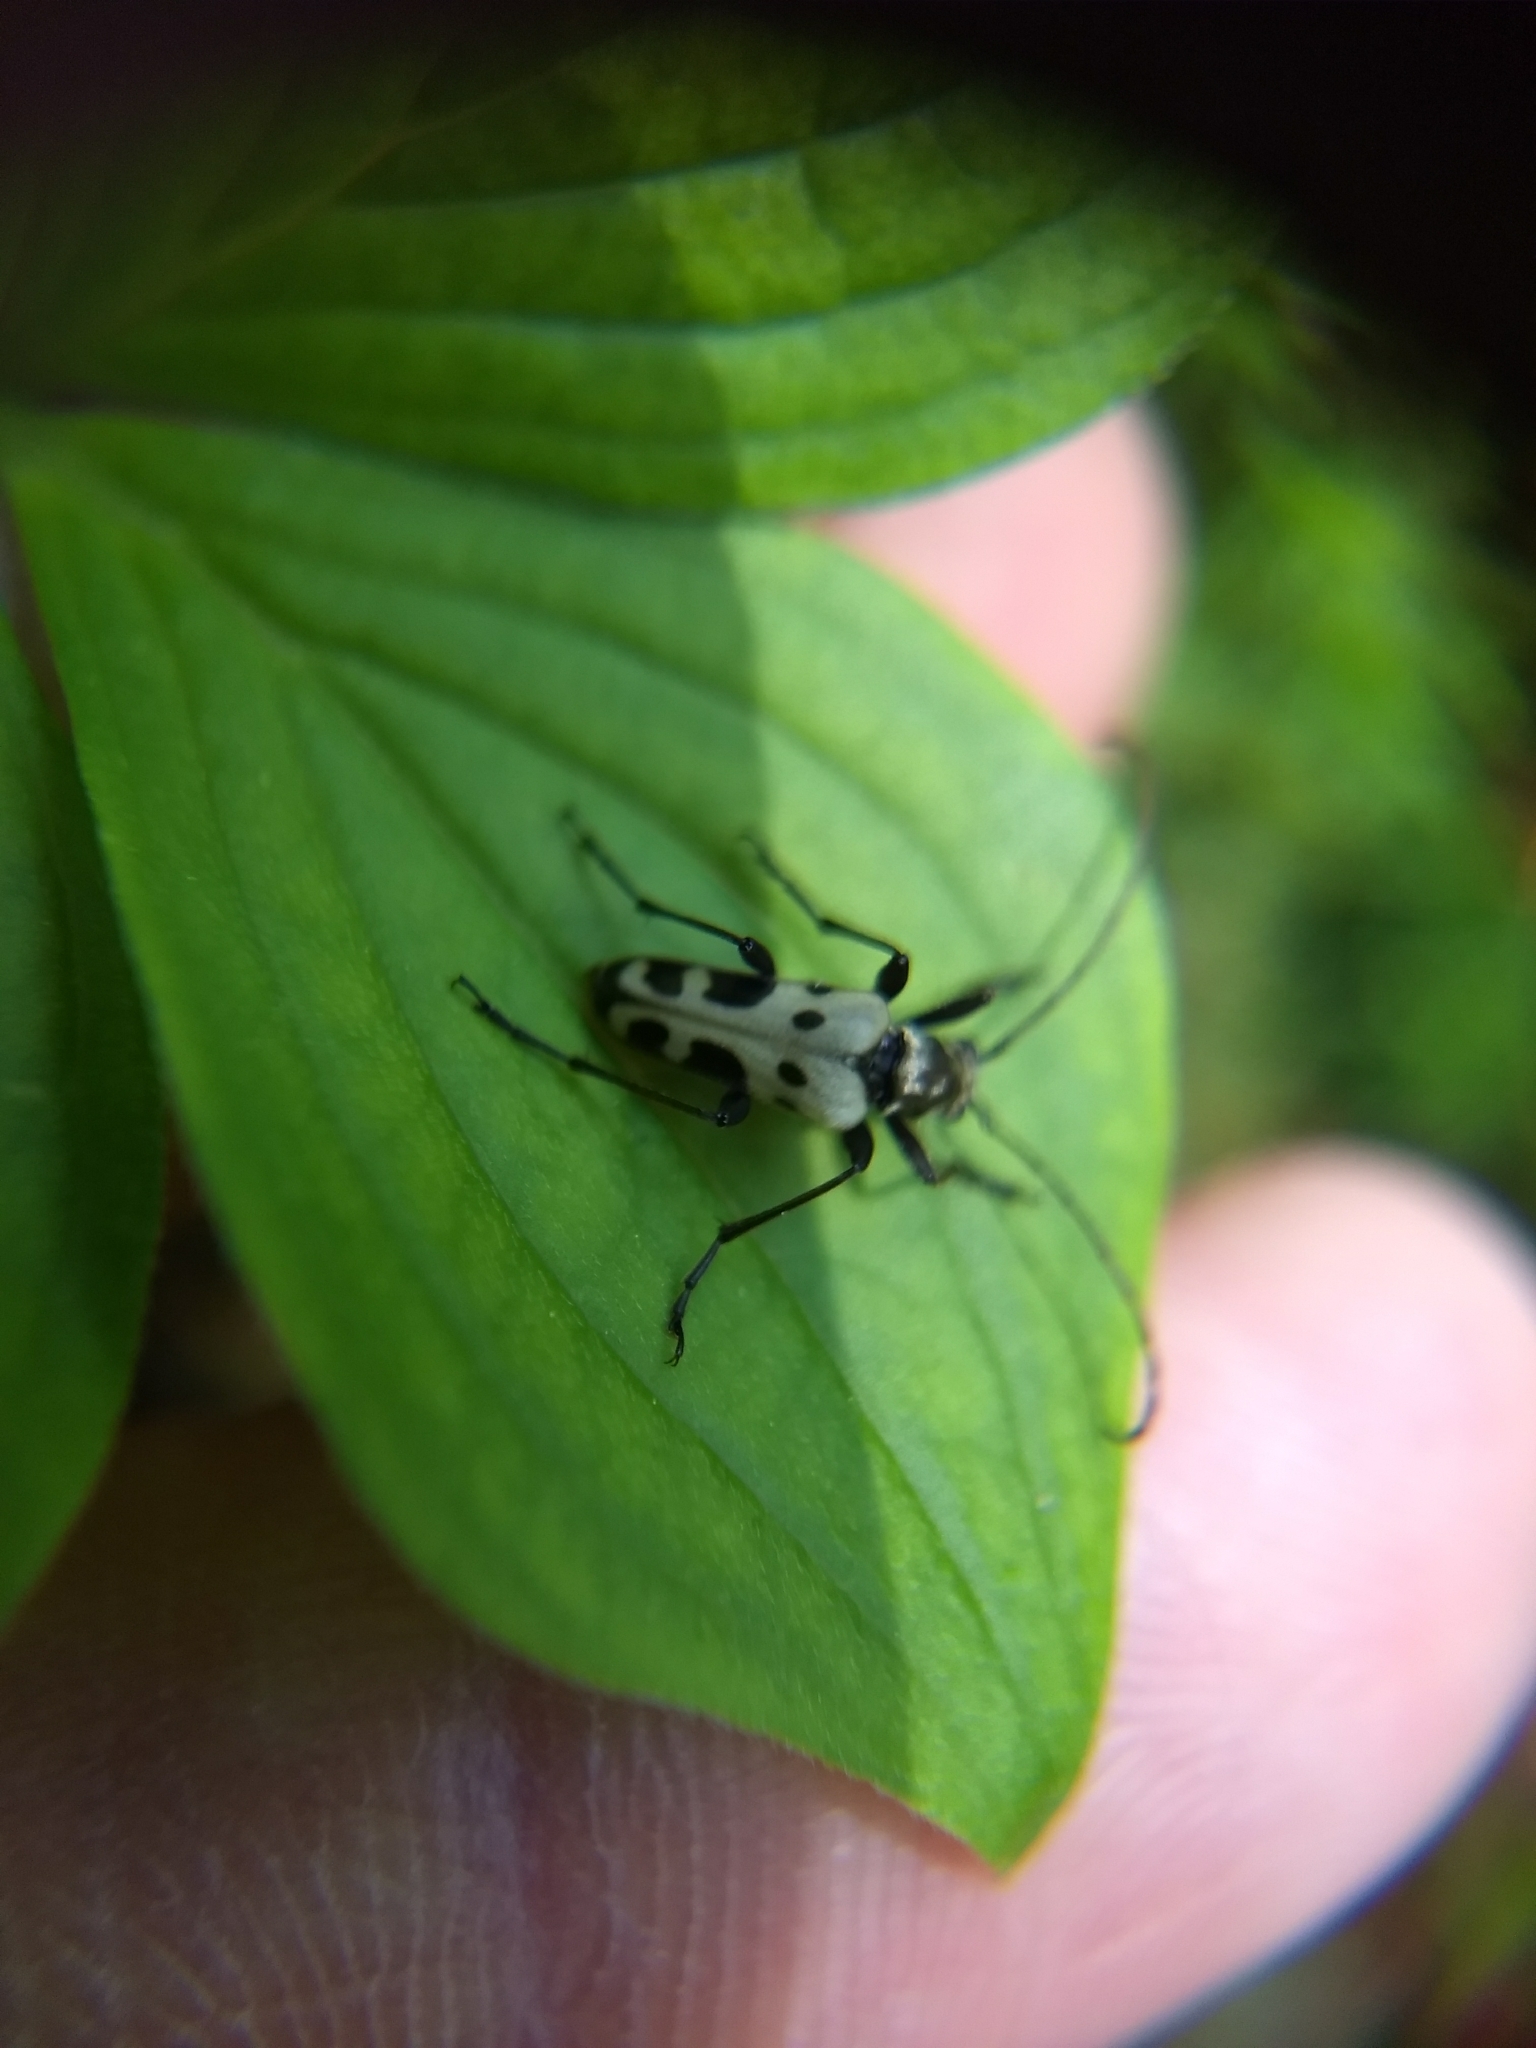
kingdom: Animalia
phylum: Arthropoda
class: Insecta
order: Coleoptera
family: Cerambycidae
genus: Evodinus
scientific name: Evodinus monticola
